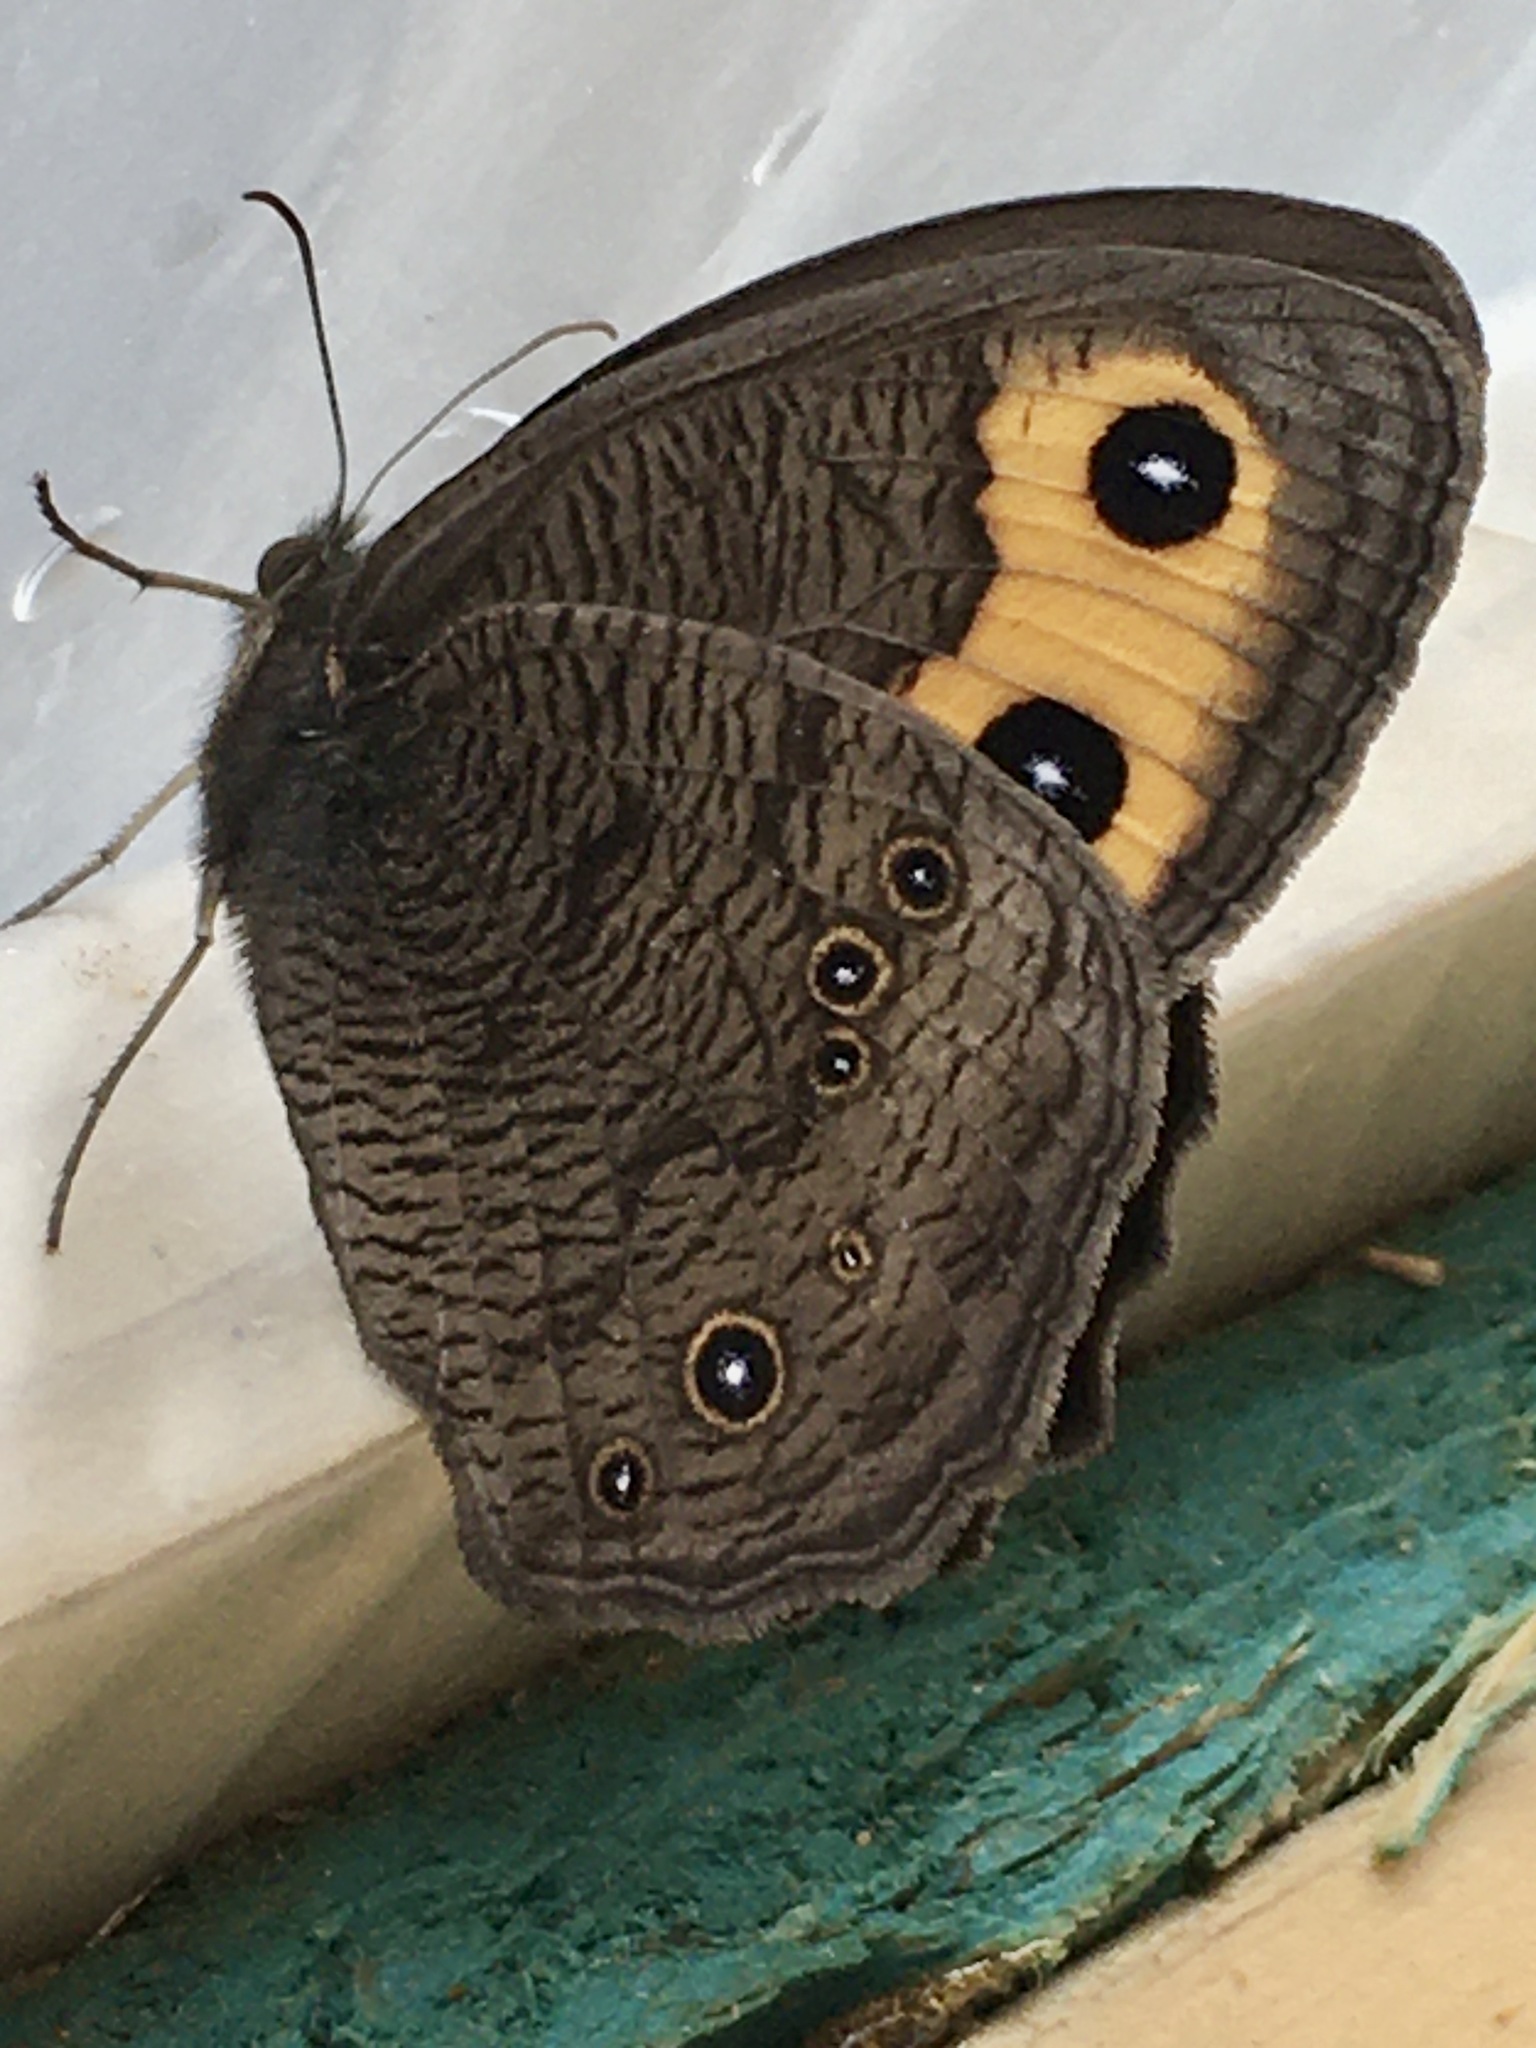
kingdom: Animalia
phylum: Arthropoda
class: Insecta
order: Lepidoptera
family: Nymphalidae
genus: Cercyonis
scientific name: Cercyonis pegala
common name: Common wood-nymph
